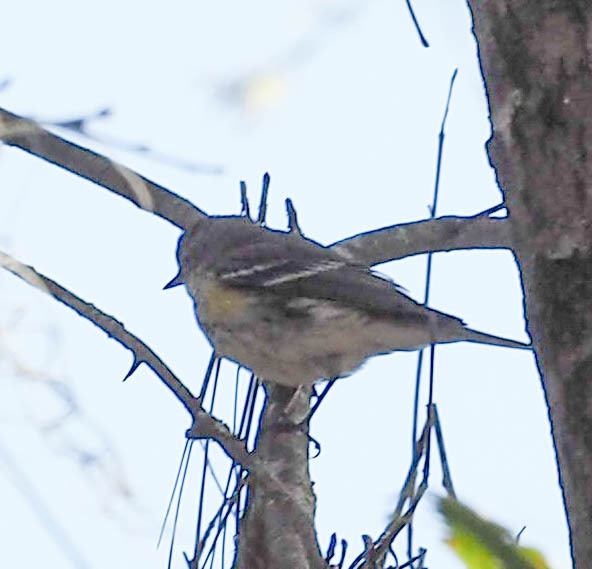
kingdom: Animalia
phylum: Chordata
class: Aves
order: Passeriformes
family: Parulidae
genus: Setophaga
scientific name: Setophaga coronata
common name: Myrtle warbler
